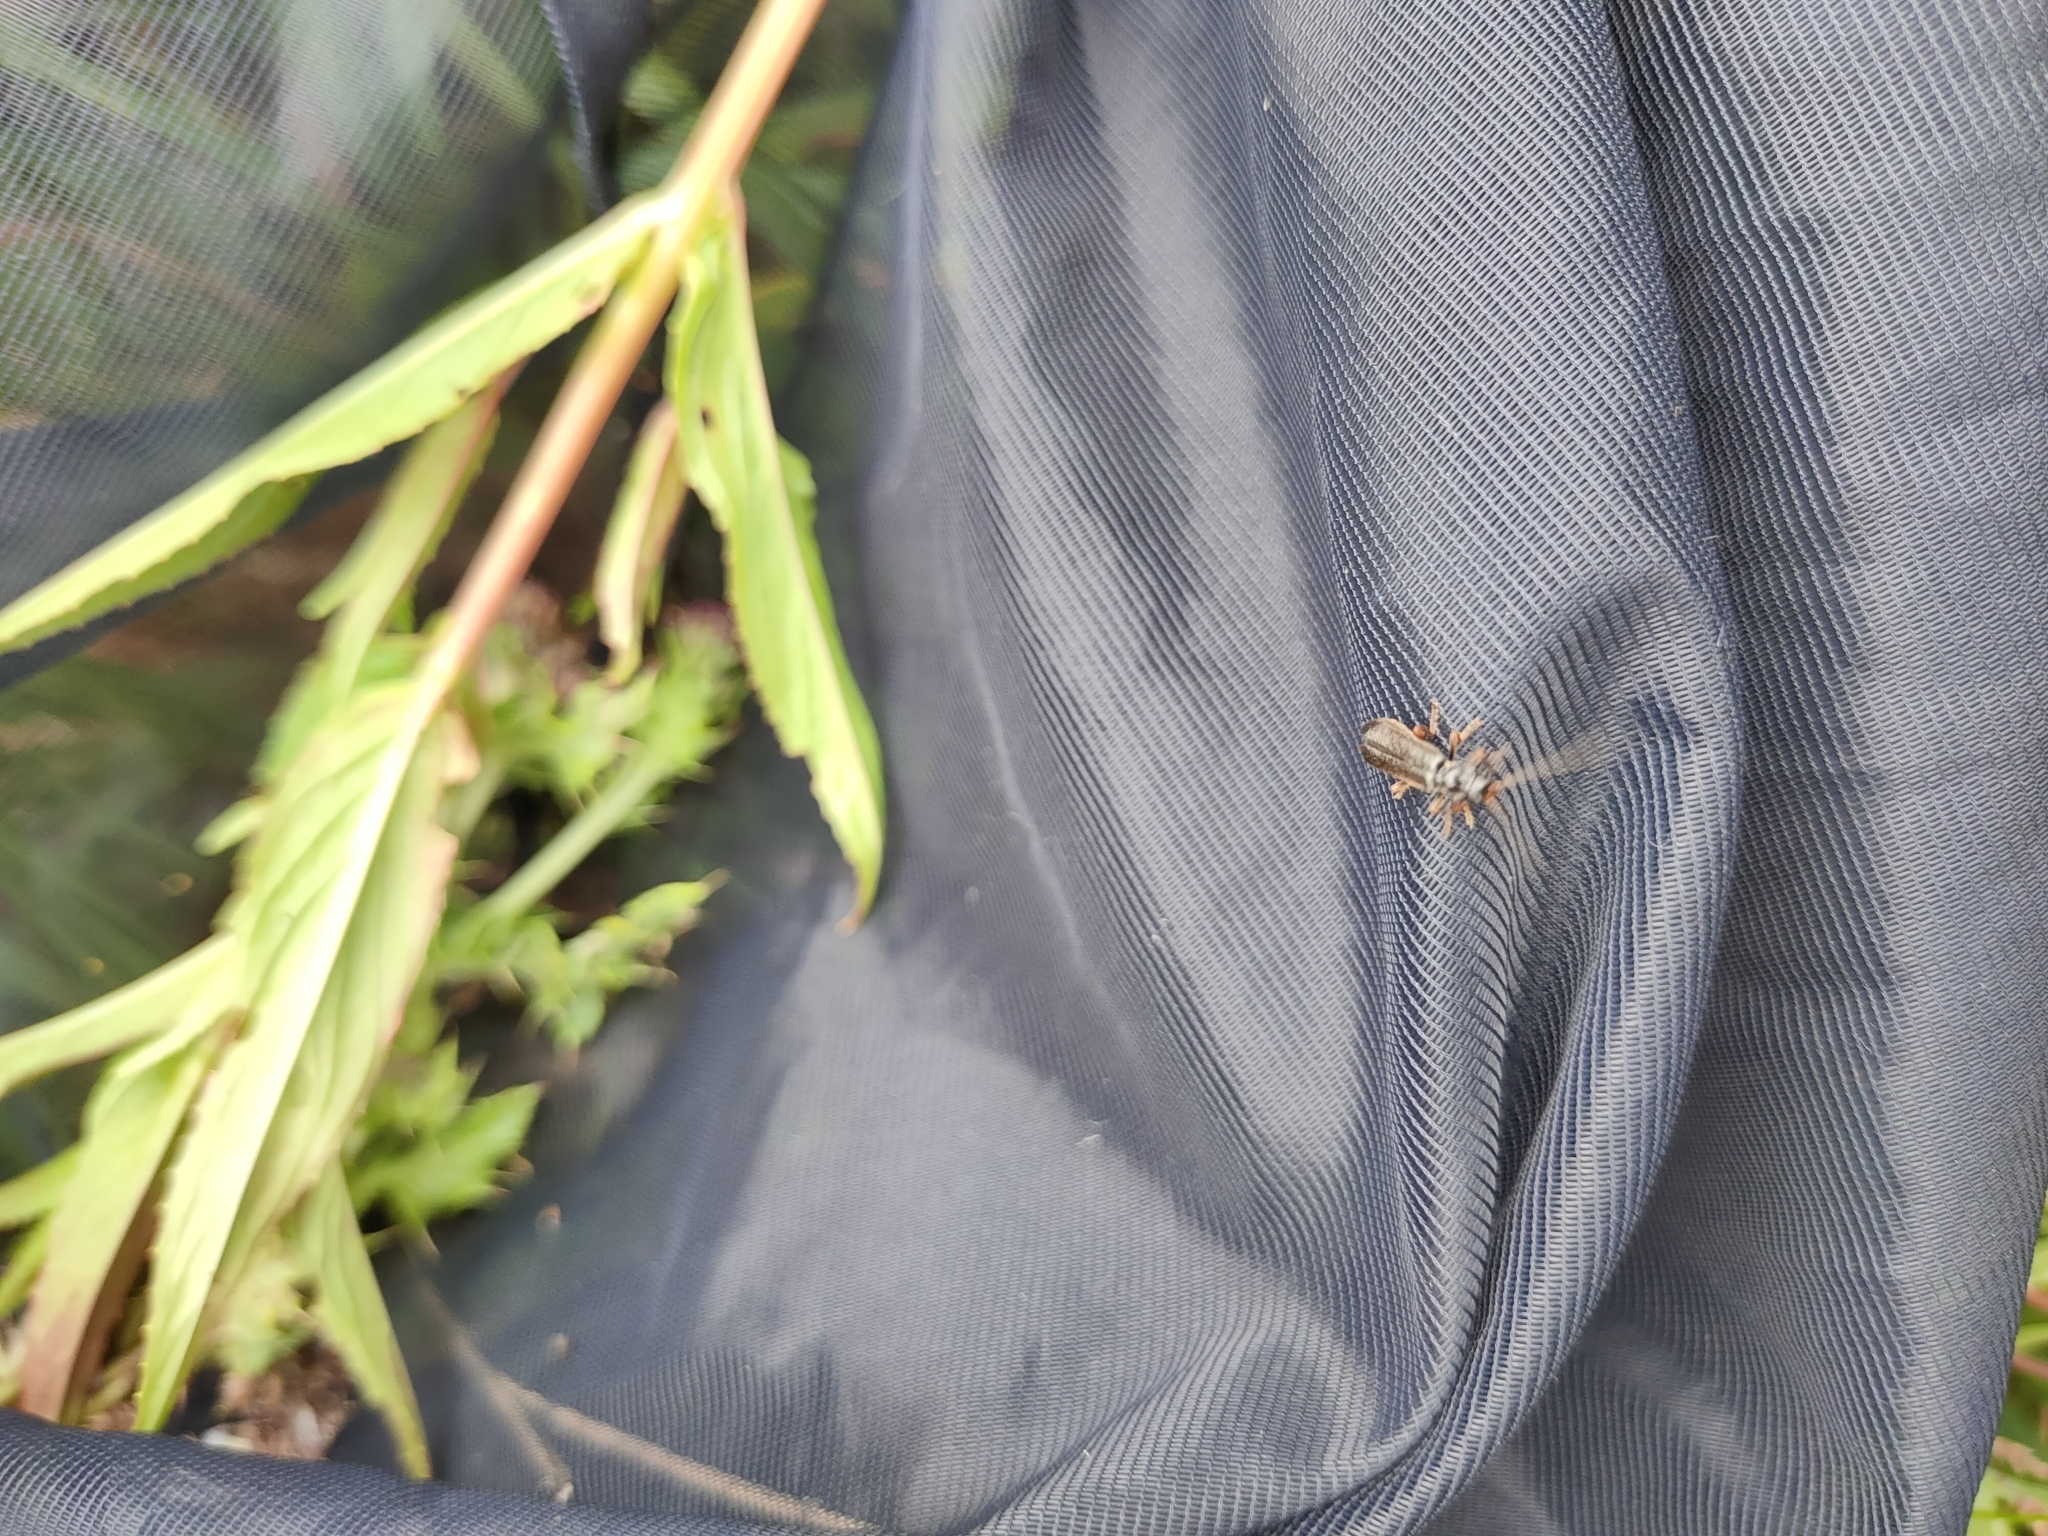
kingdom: Animalia
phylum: Arthropoda
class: Insecta
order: Coleoptera
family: Cantharidae
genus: Cantharis
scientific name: Cantharis flavilabris
